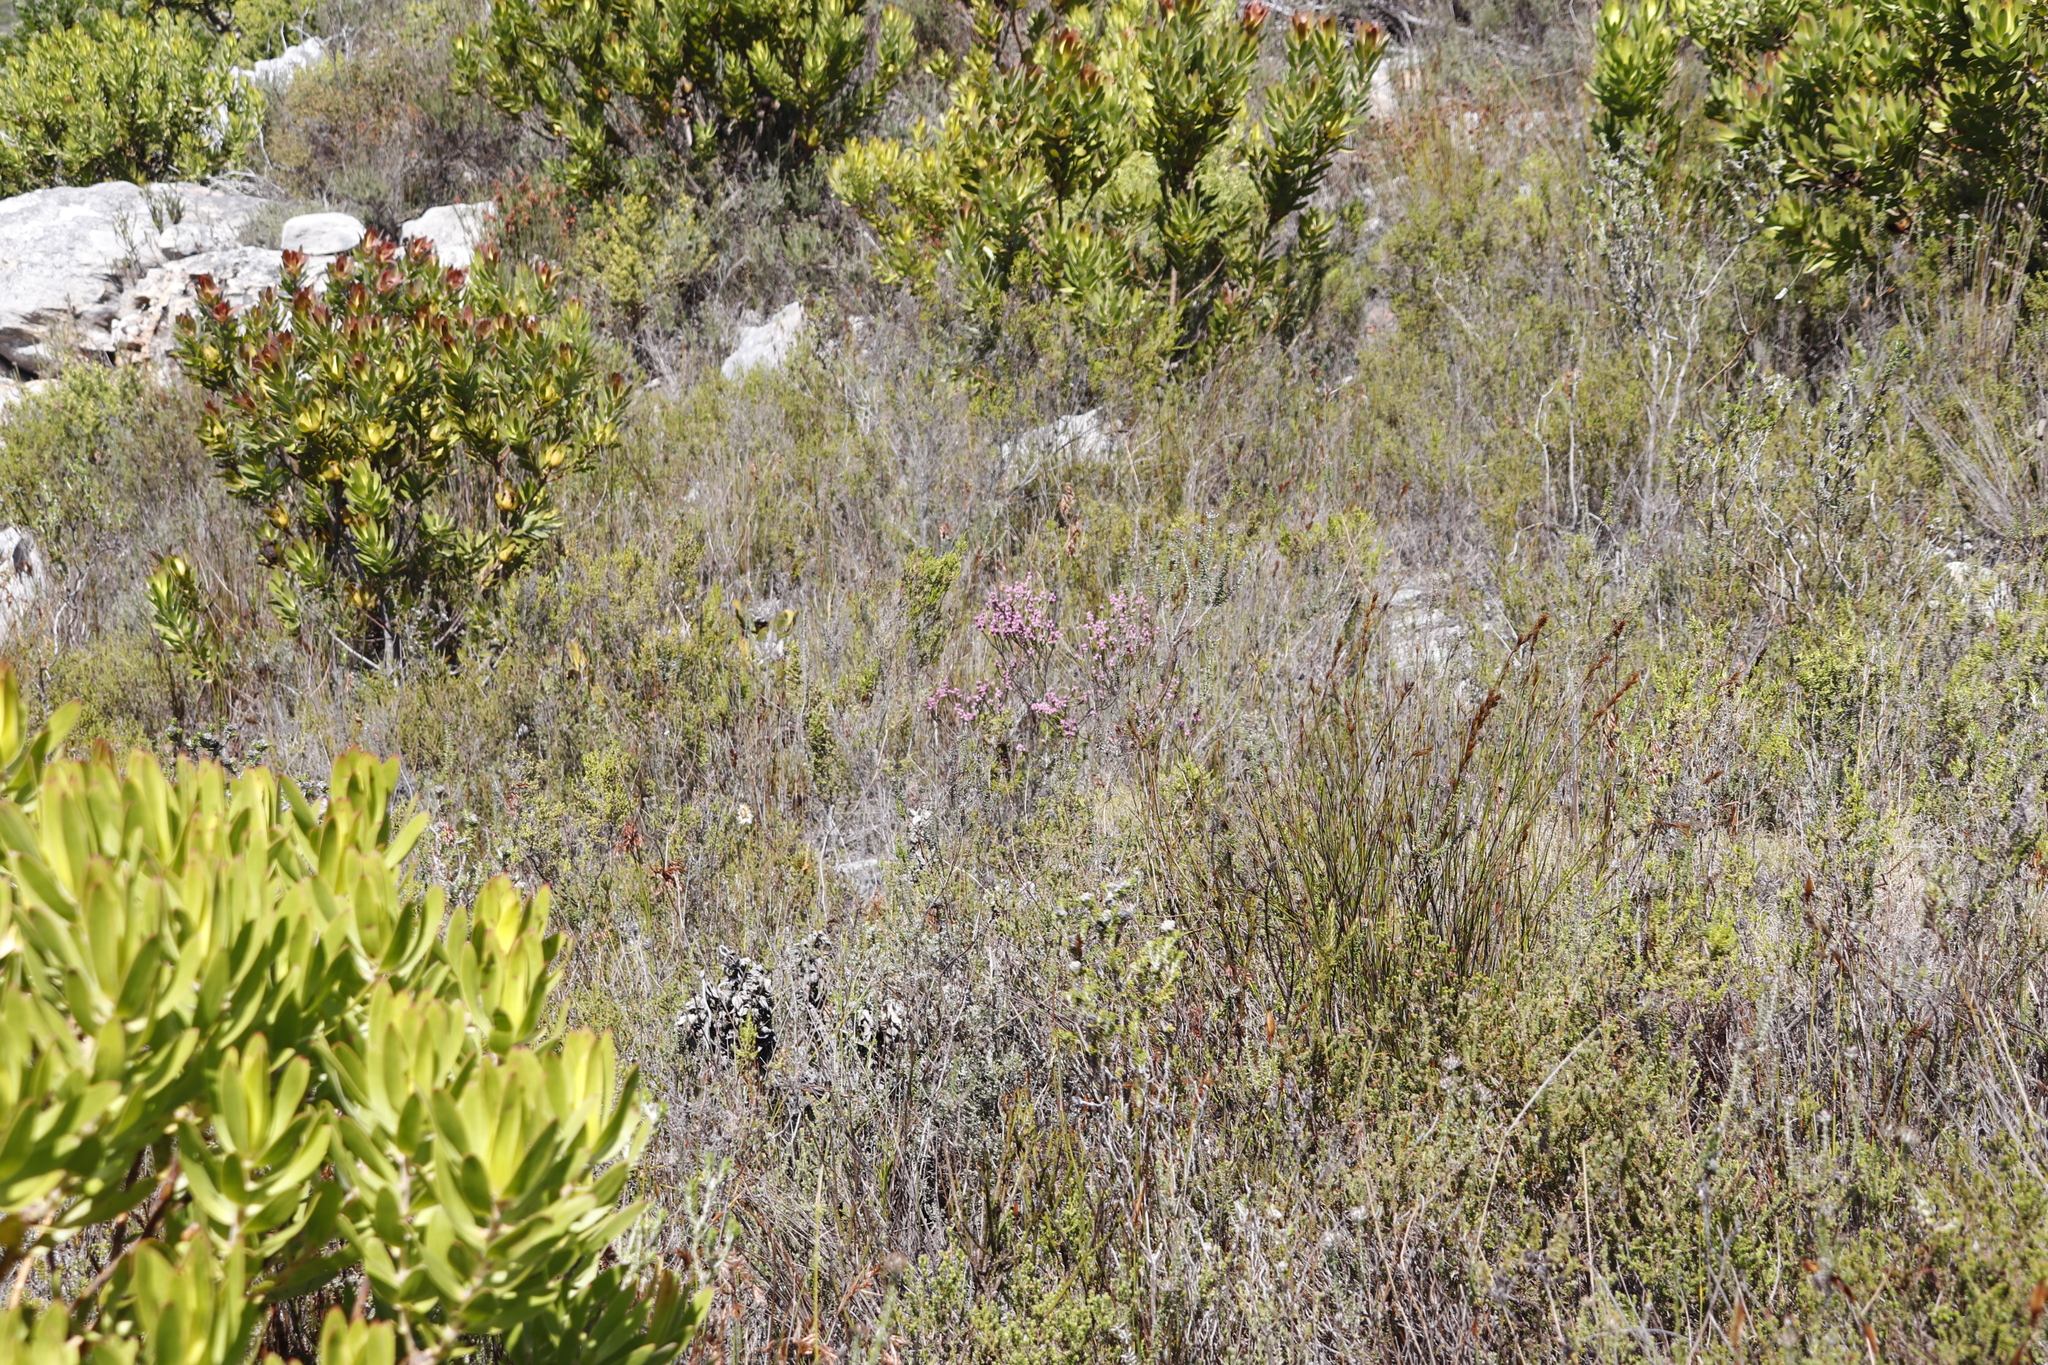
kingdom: Plantae
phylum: Tracheophyta
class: Magnoliopsida
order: Ericales
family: Ericaceae
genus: Erica
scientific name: Erica corifolia
